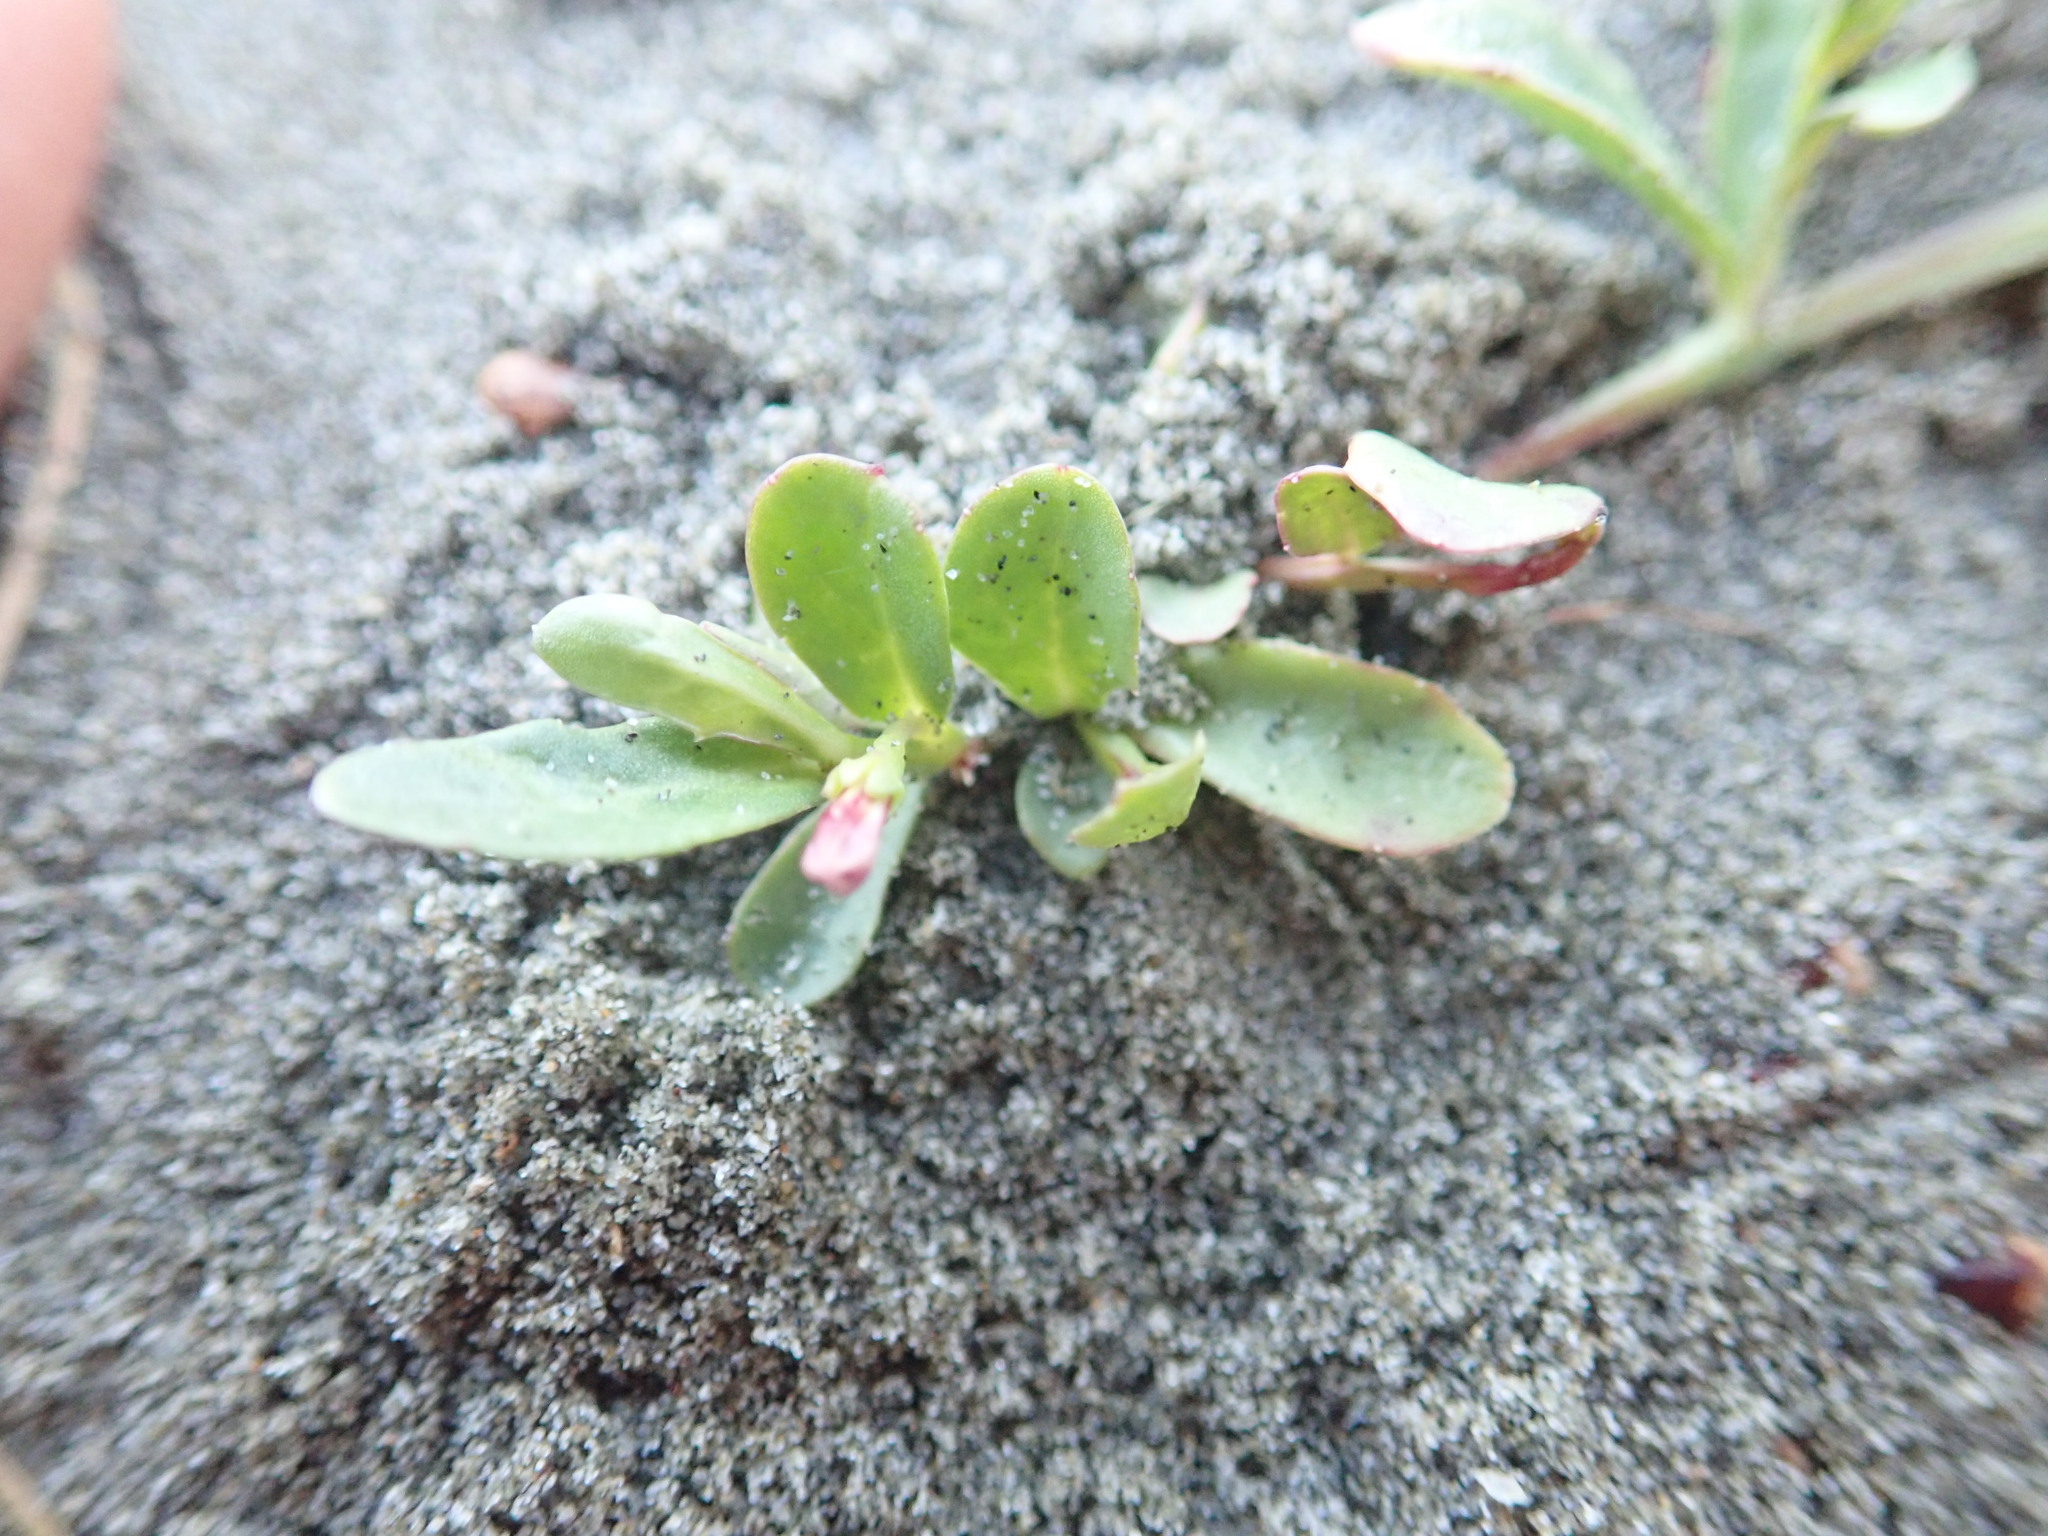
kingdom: Plantae
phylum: Tracheophyta
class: Magnoliopsida
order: Asterales
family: Campanulaceae
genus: Lobelia
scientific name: Lobelia anceps
